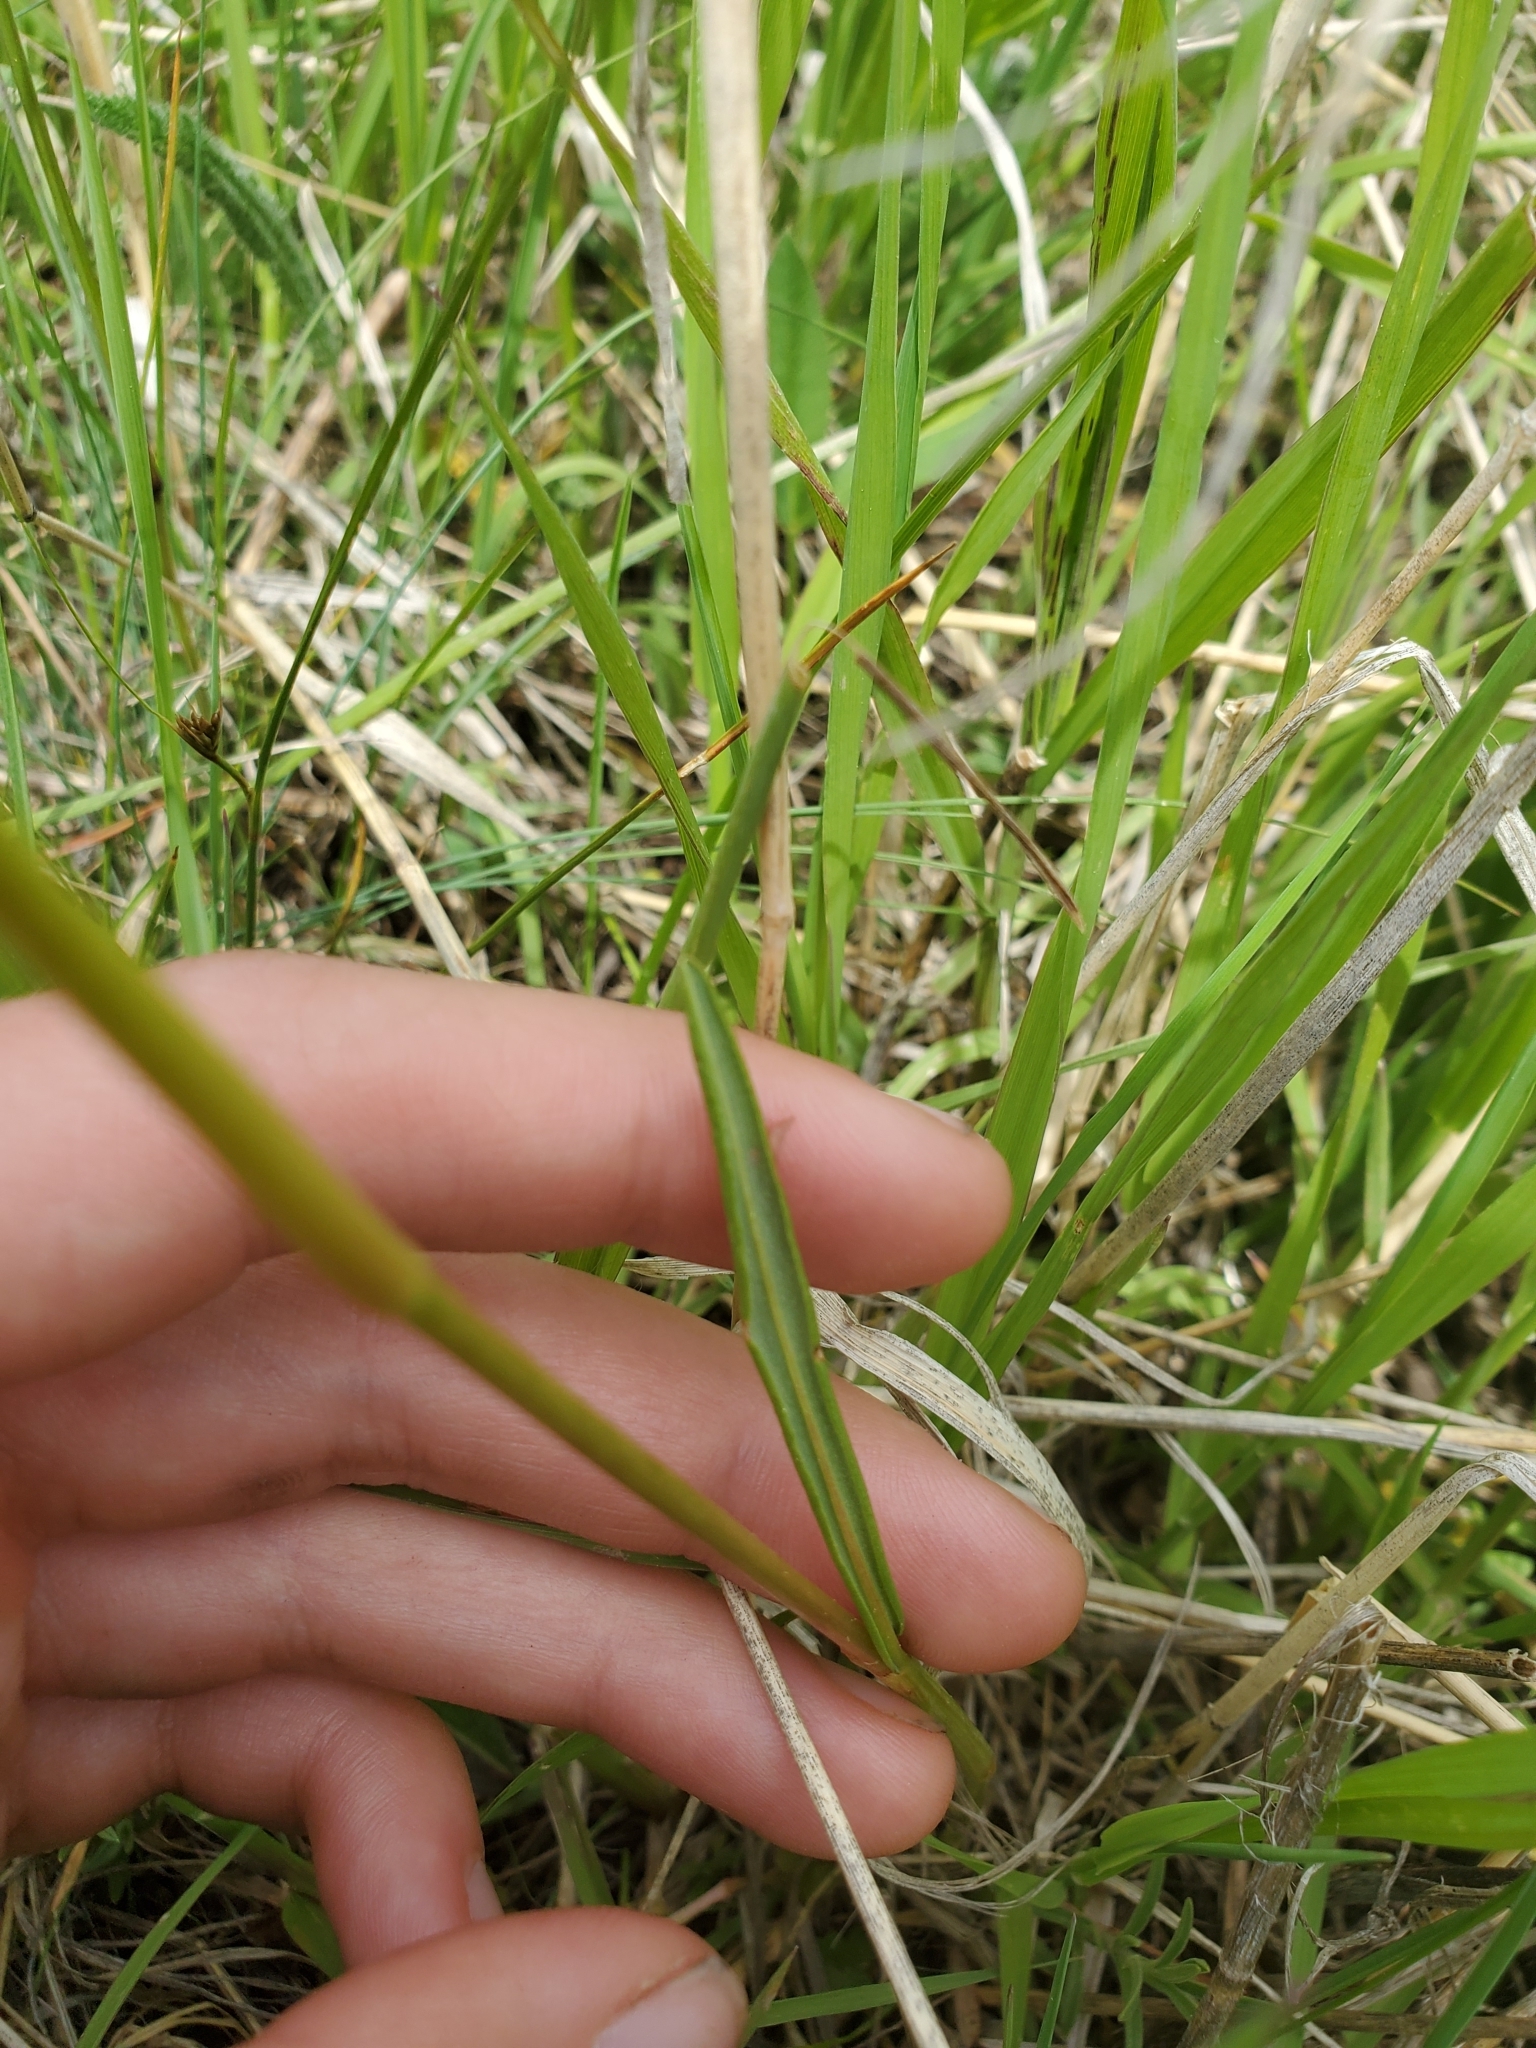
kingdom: Plantae
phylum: Tracheophyta
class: Magnoliopsida
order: Caryophyllales
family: Polygonaceae
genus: Bistorta
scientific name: Bistorta bistortoides
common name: American bistort
